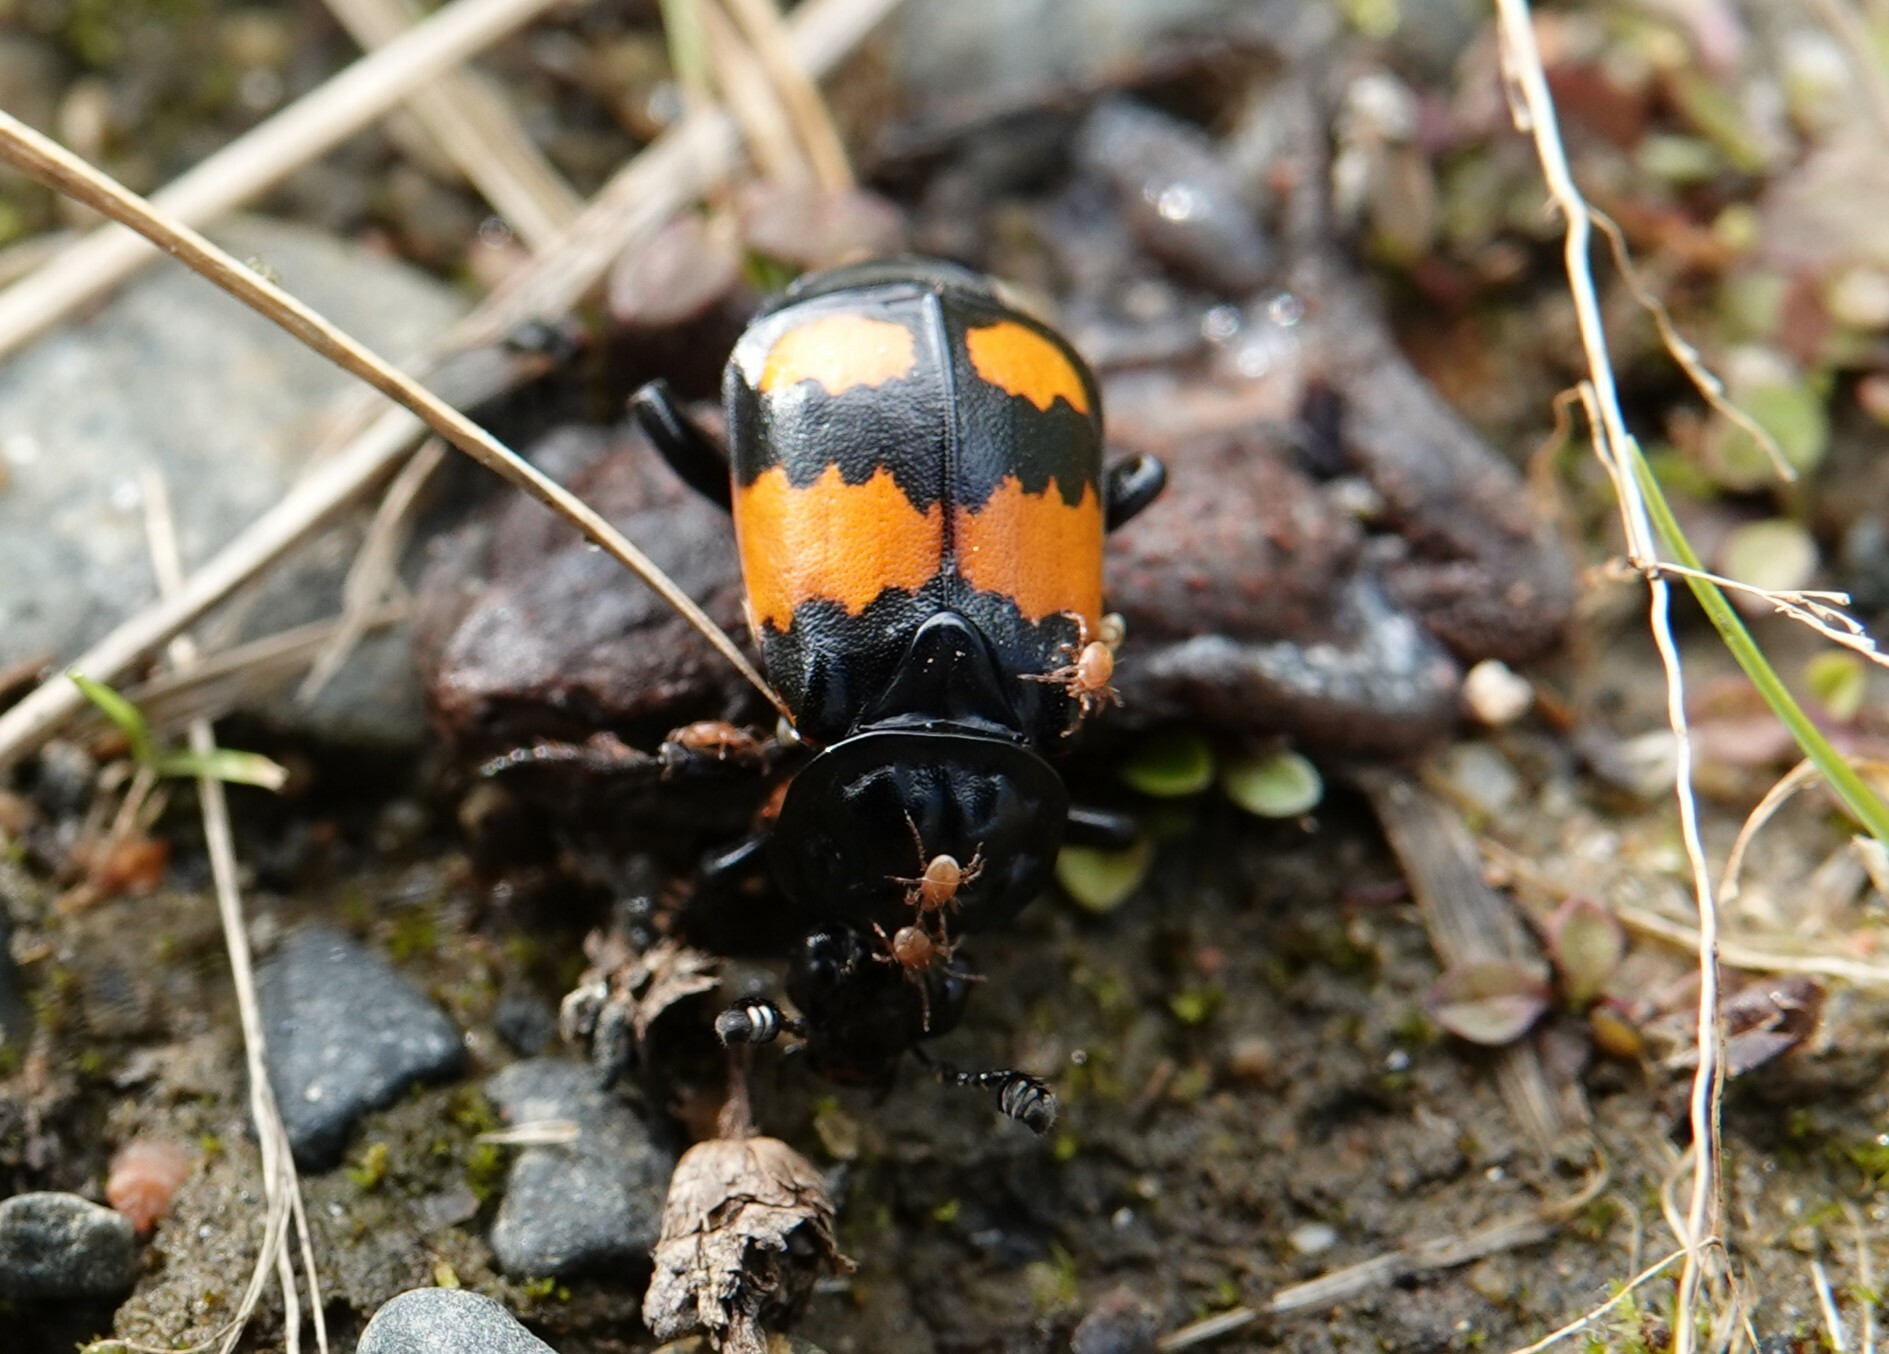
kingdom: Animalia
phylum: Arthropoda
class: Insecta
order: Coleoptera
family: Staphylinidae
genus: Nicrophorus
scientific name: Nicrophorus vespilloides
